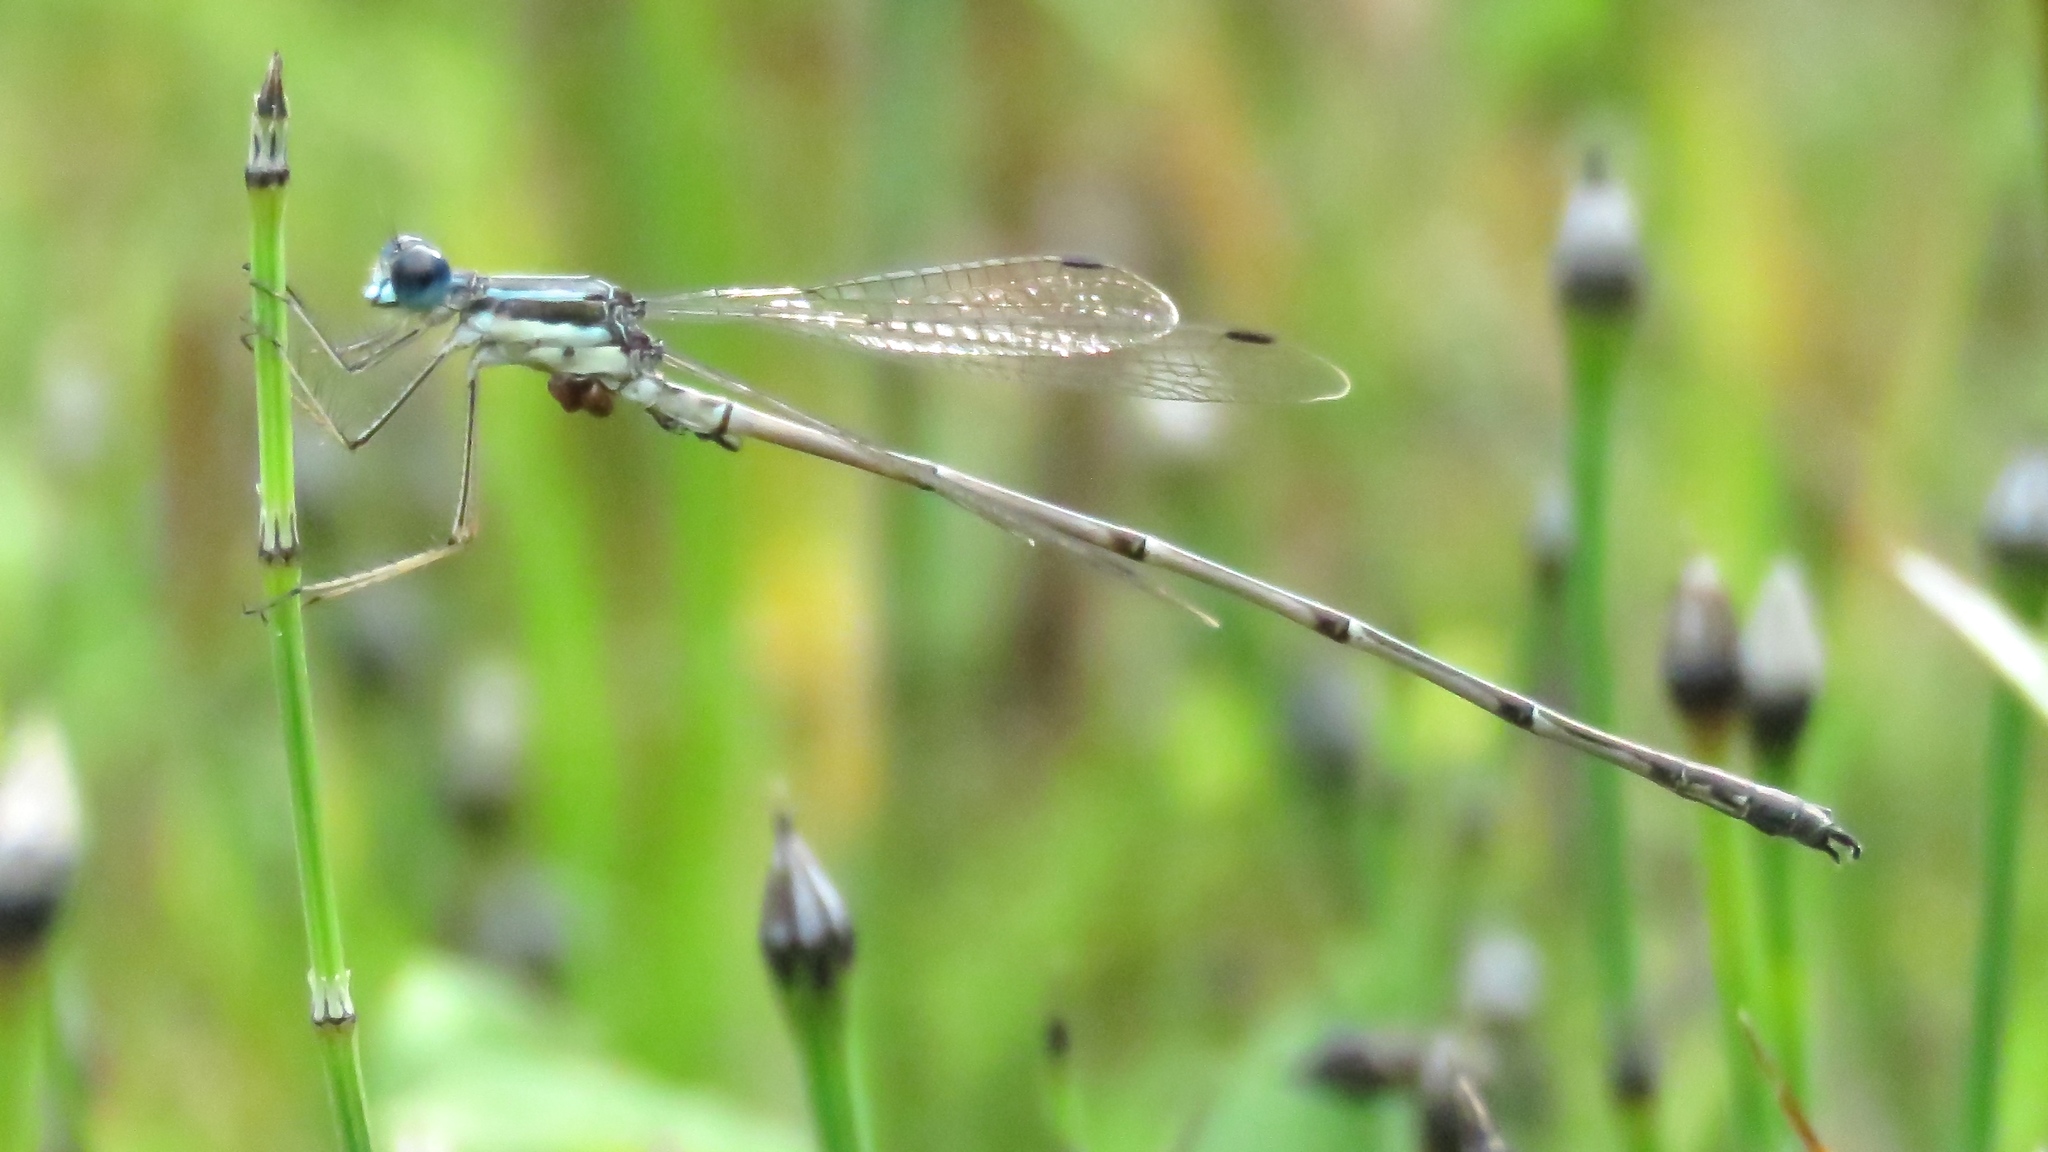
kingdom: Animalia
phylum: Arthropoda
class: Insecta
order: Odonata
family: Lestidae
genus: Lestes
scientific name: Lestes rectangularis
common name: Slender spreadwing
